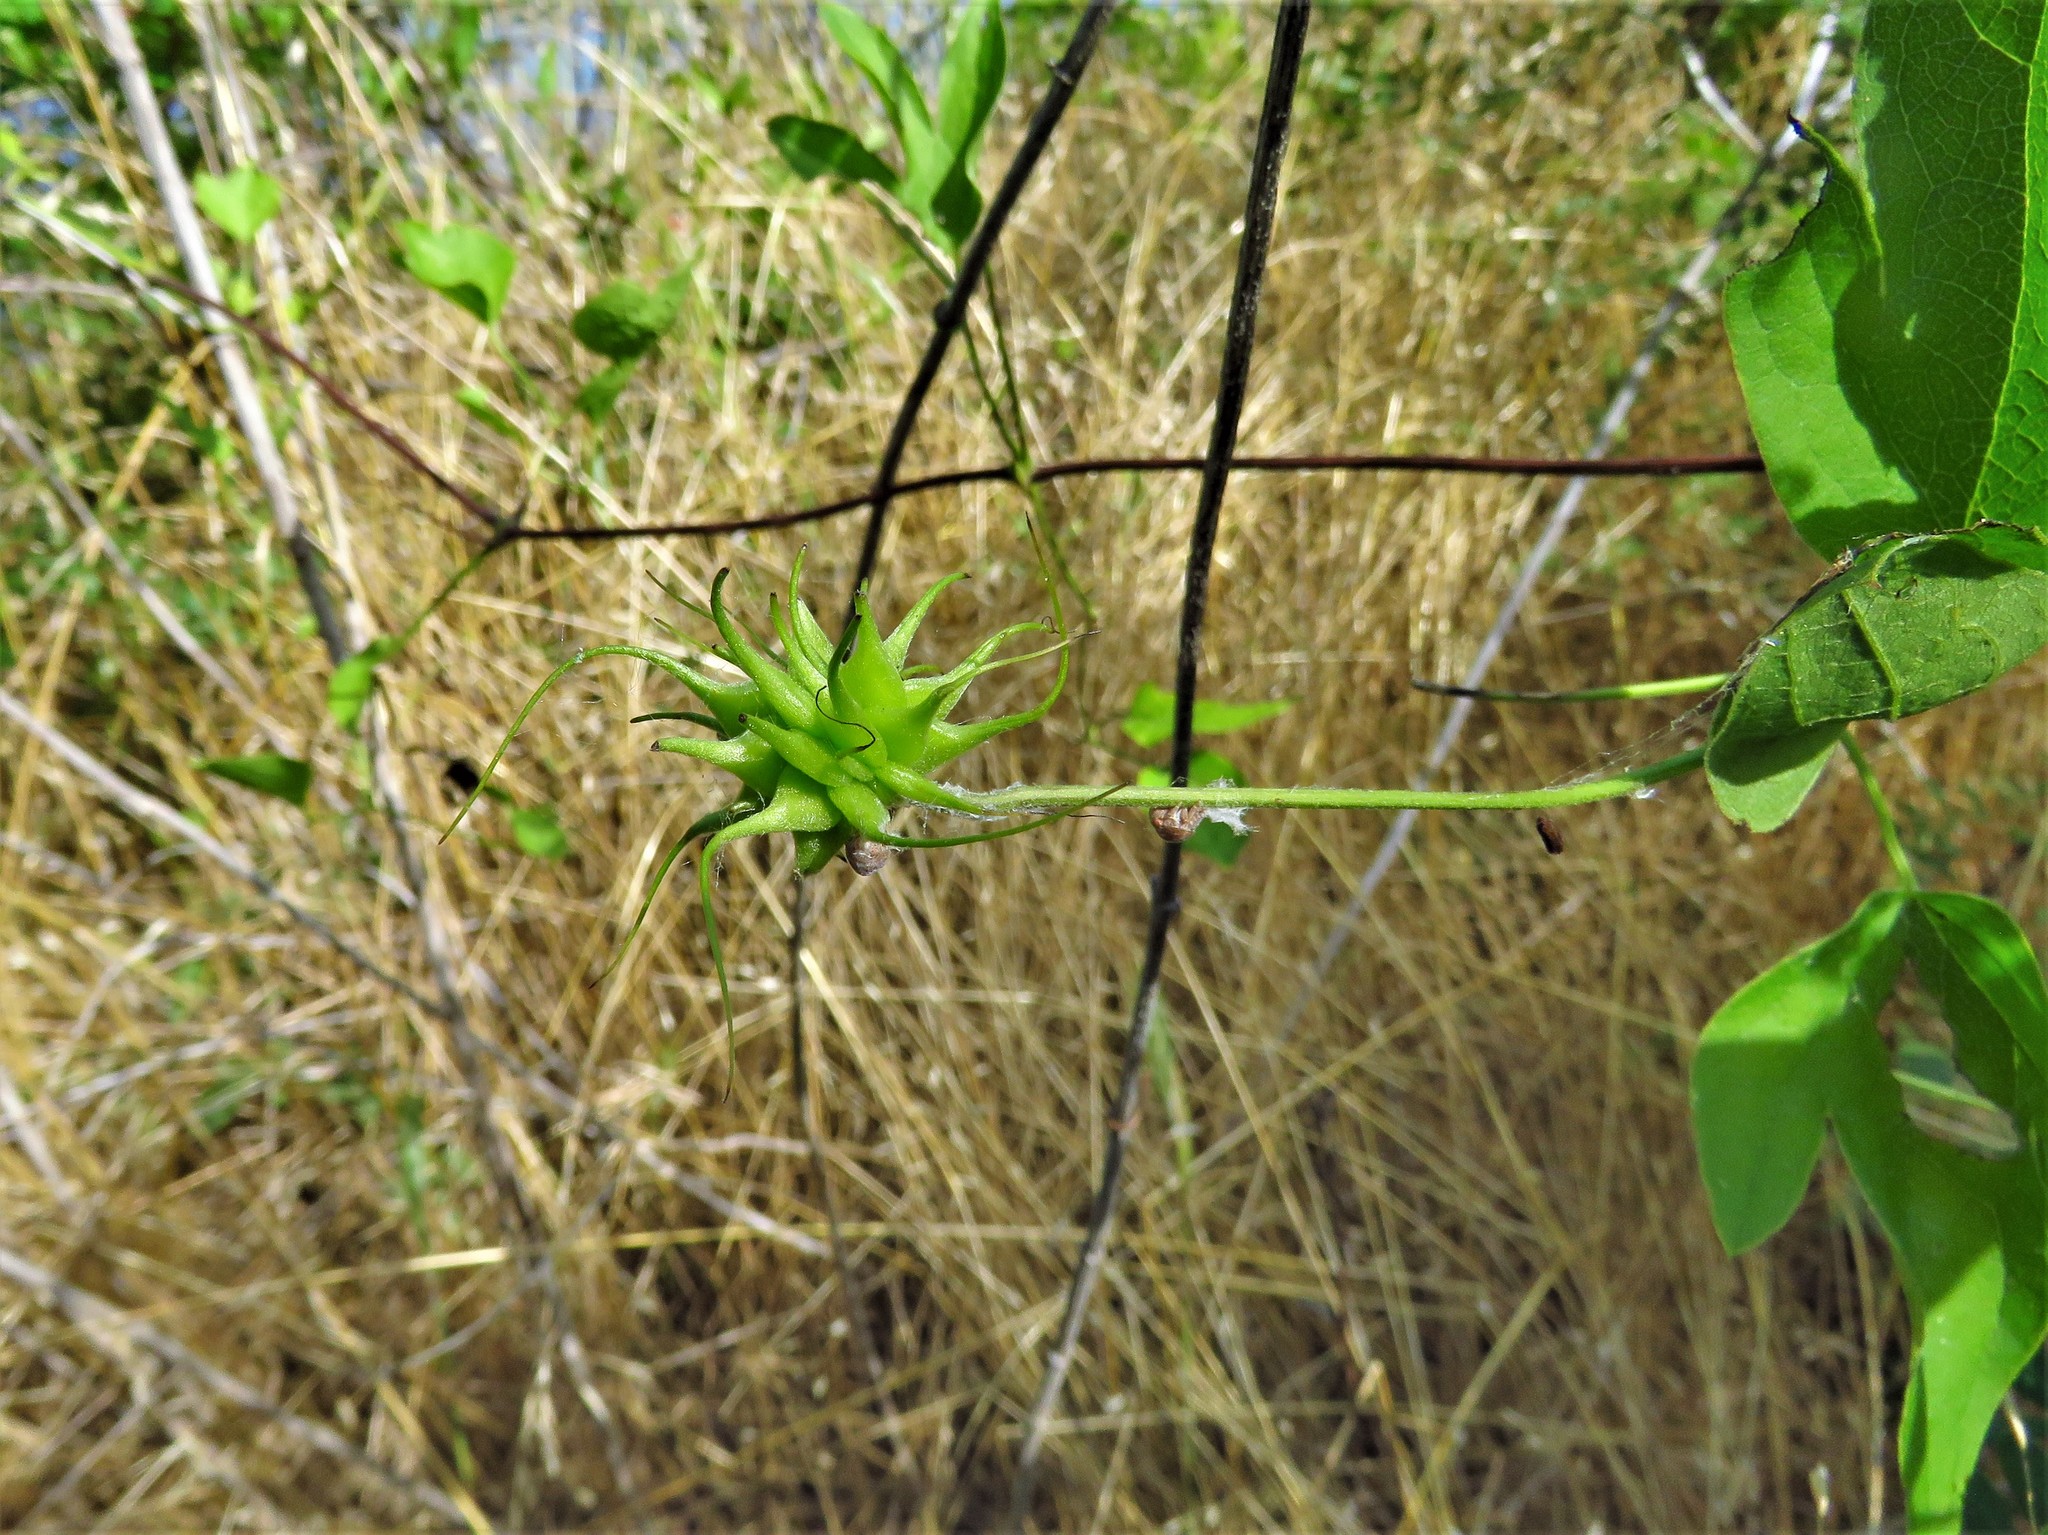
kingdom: Plantae
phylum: Tracheophyta
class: Magnoliopsida
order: Ranunculales
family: Ranunculaceae
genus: Clematis
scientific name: Clematis pitcheri
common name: Bellflower clematis
